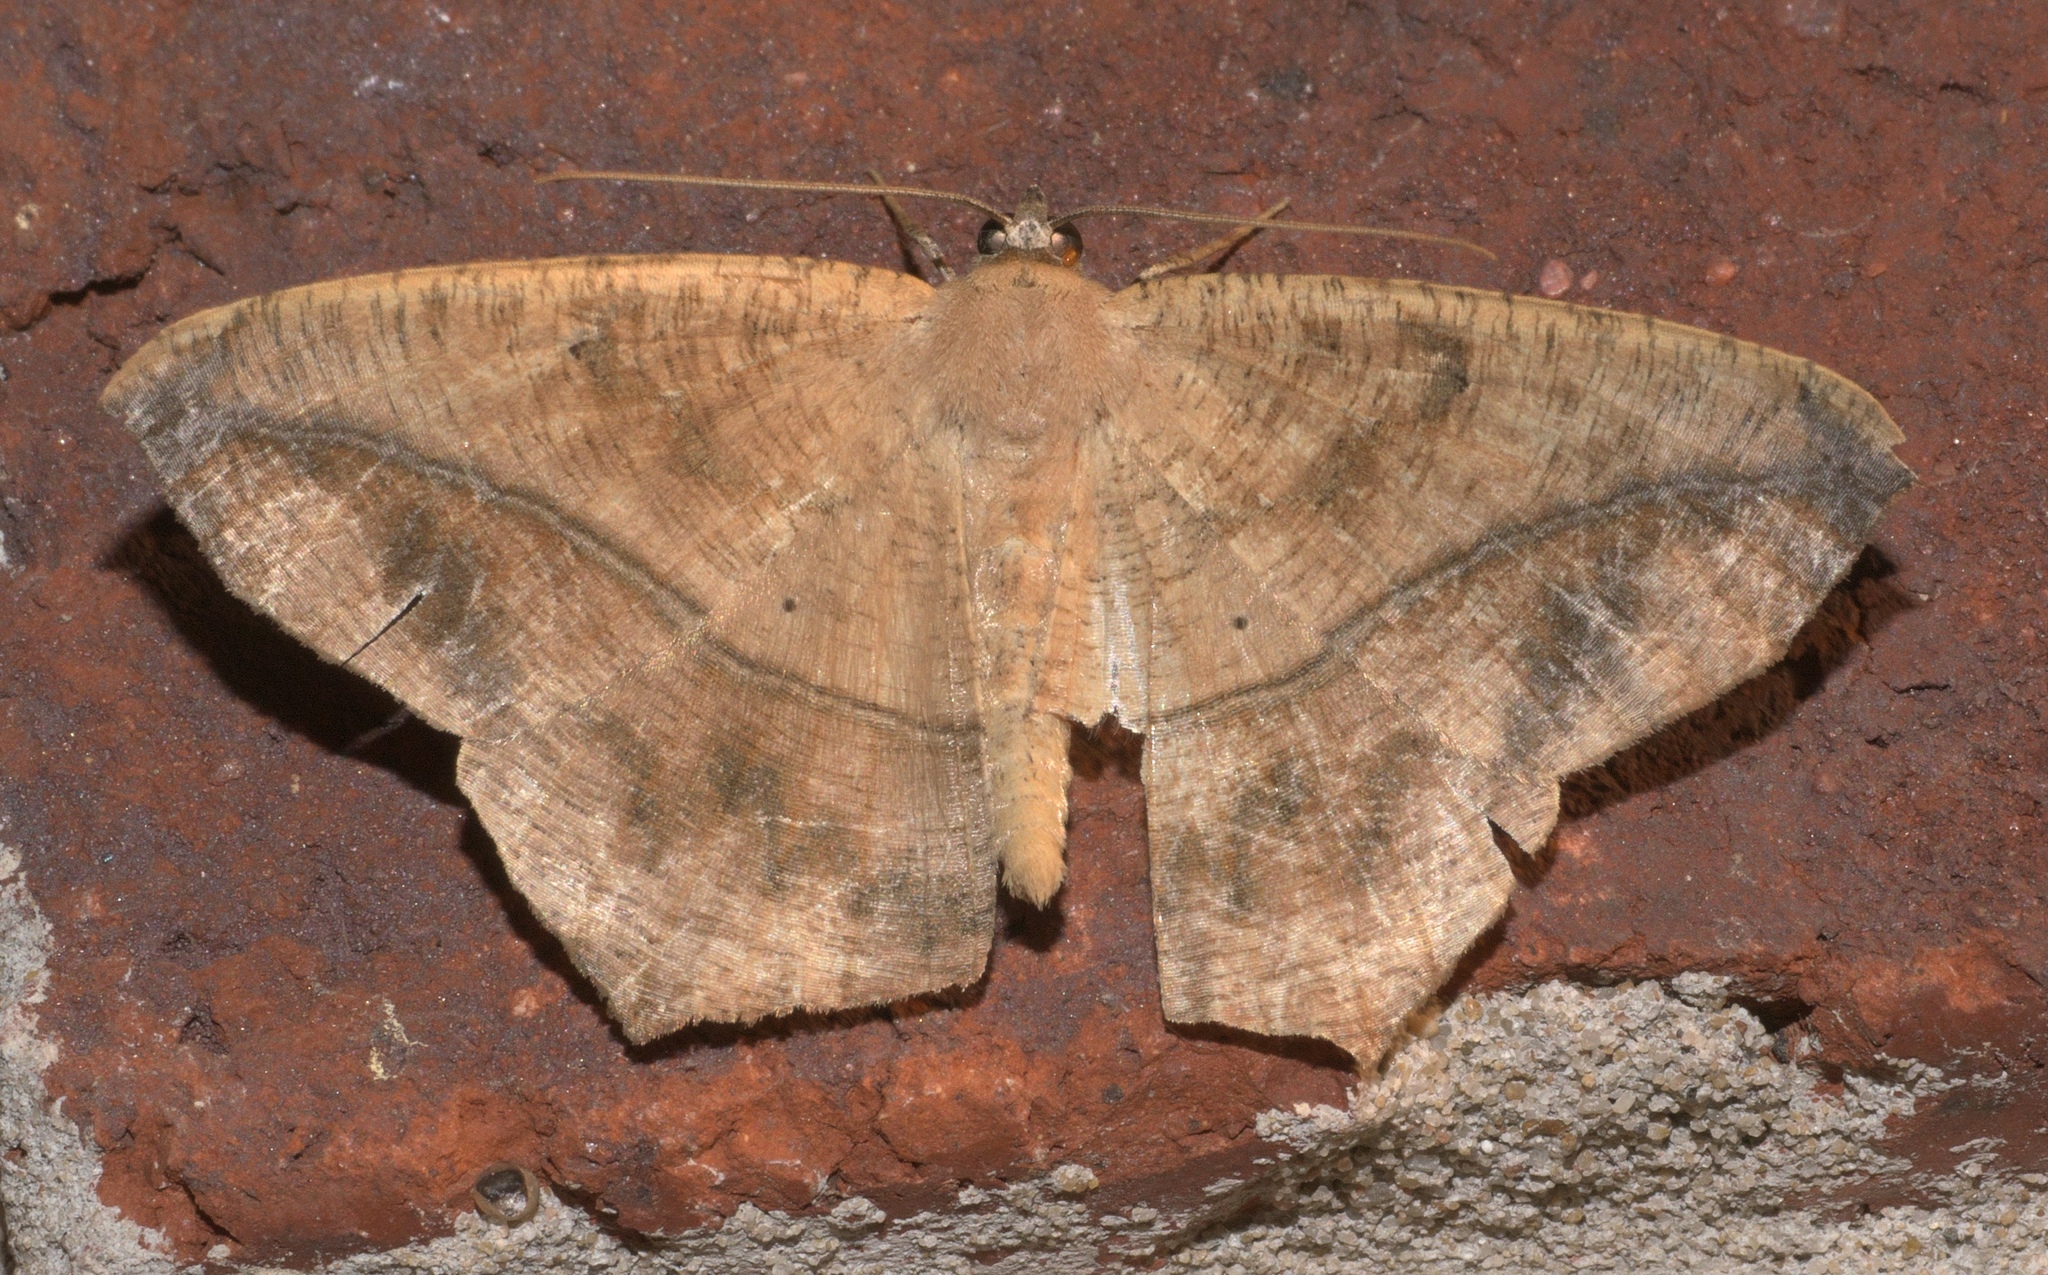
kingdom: Animalia
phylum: Arthropoda
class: Insecta
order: Lepidoptera
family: Geometridae
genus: Prochoerodes
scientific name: Prochoerodes lineola
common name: Large maple spanworm
